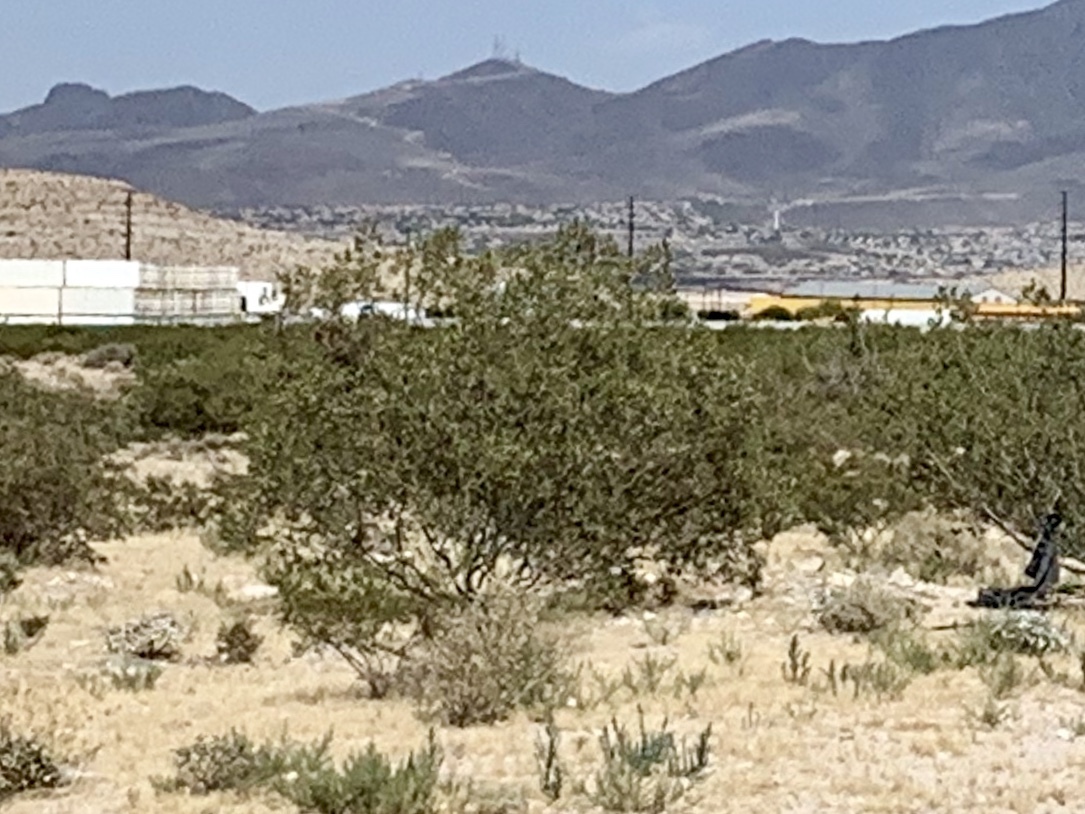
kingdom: Plantae
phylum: Tracheophyta
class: Magnoliopsida
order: Zygophyllales
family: Zygophyllaceae
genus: Larrea
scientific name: Larrea tridentata
